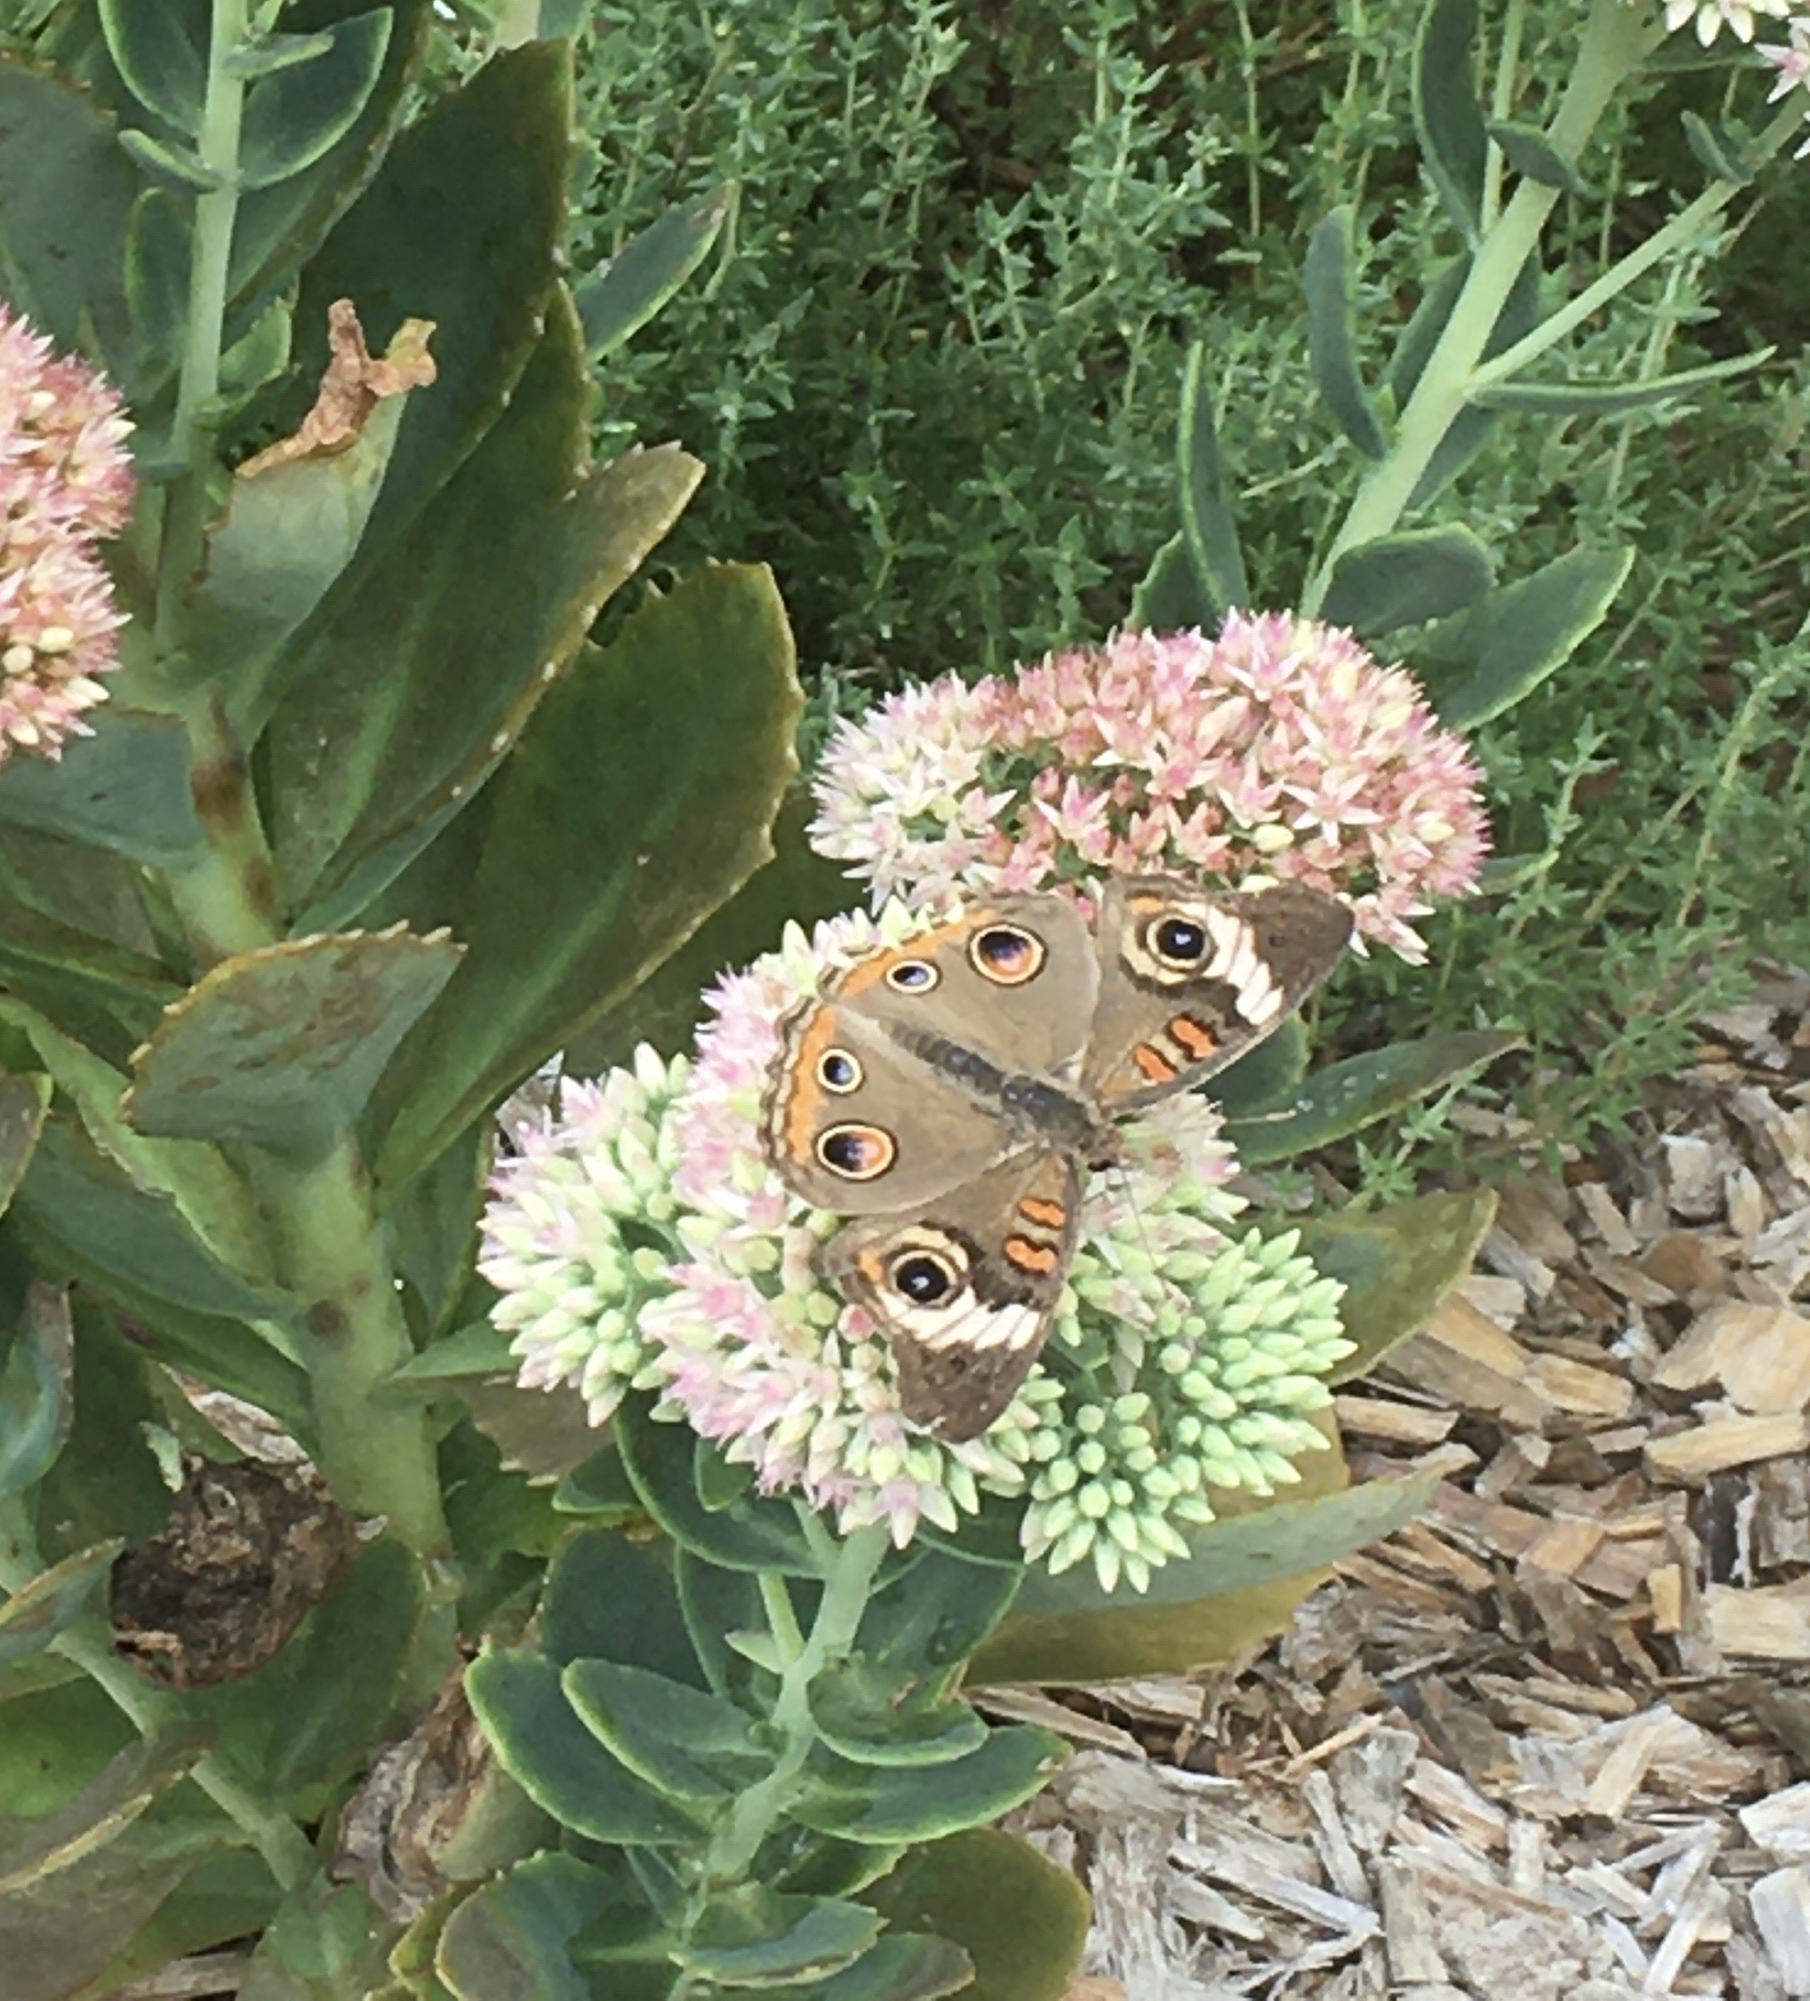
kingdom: Animalia
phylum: Arthropoda
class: Insecta
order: Lepidoptera
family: Nymphalidae
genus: Junonia
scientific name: Junonia coenia
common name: Common buckeye
